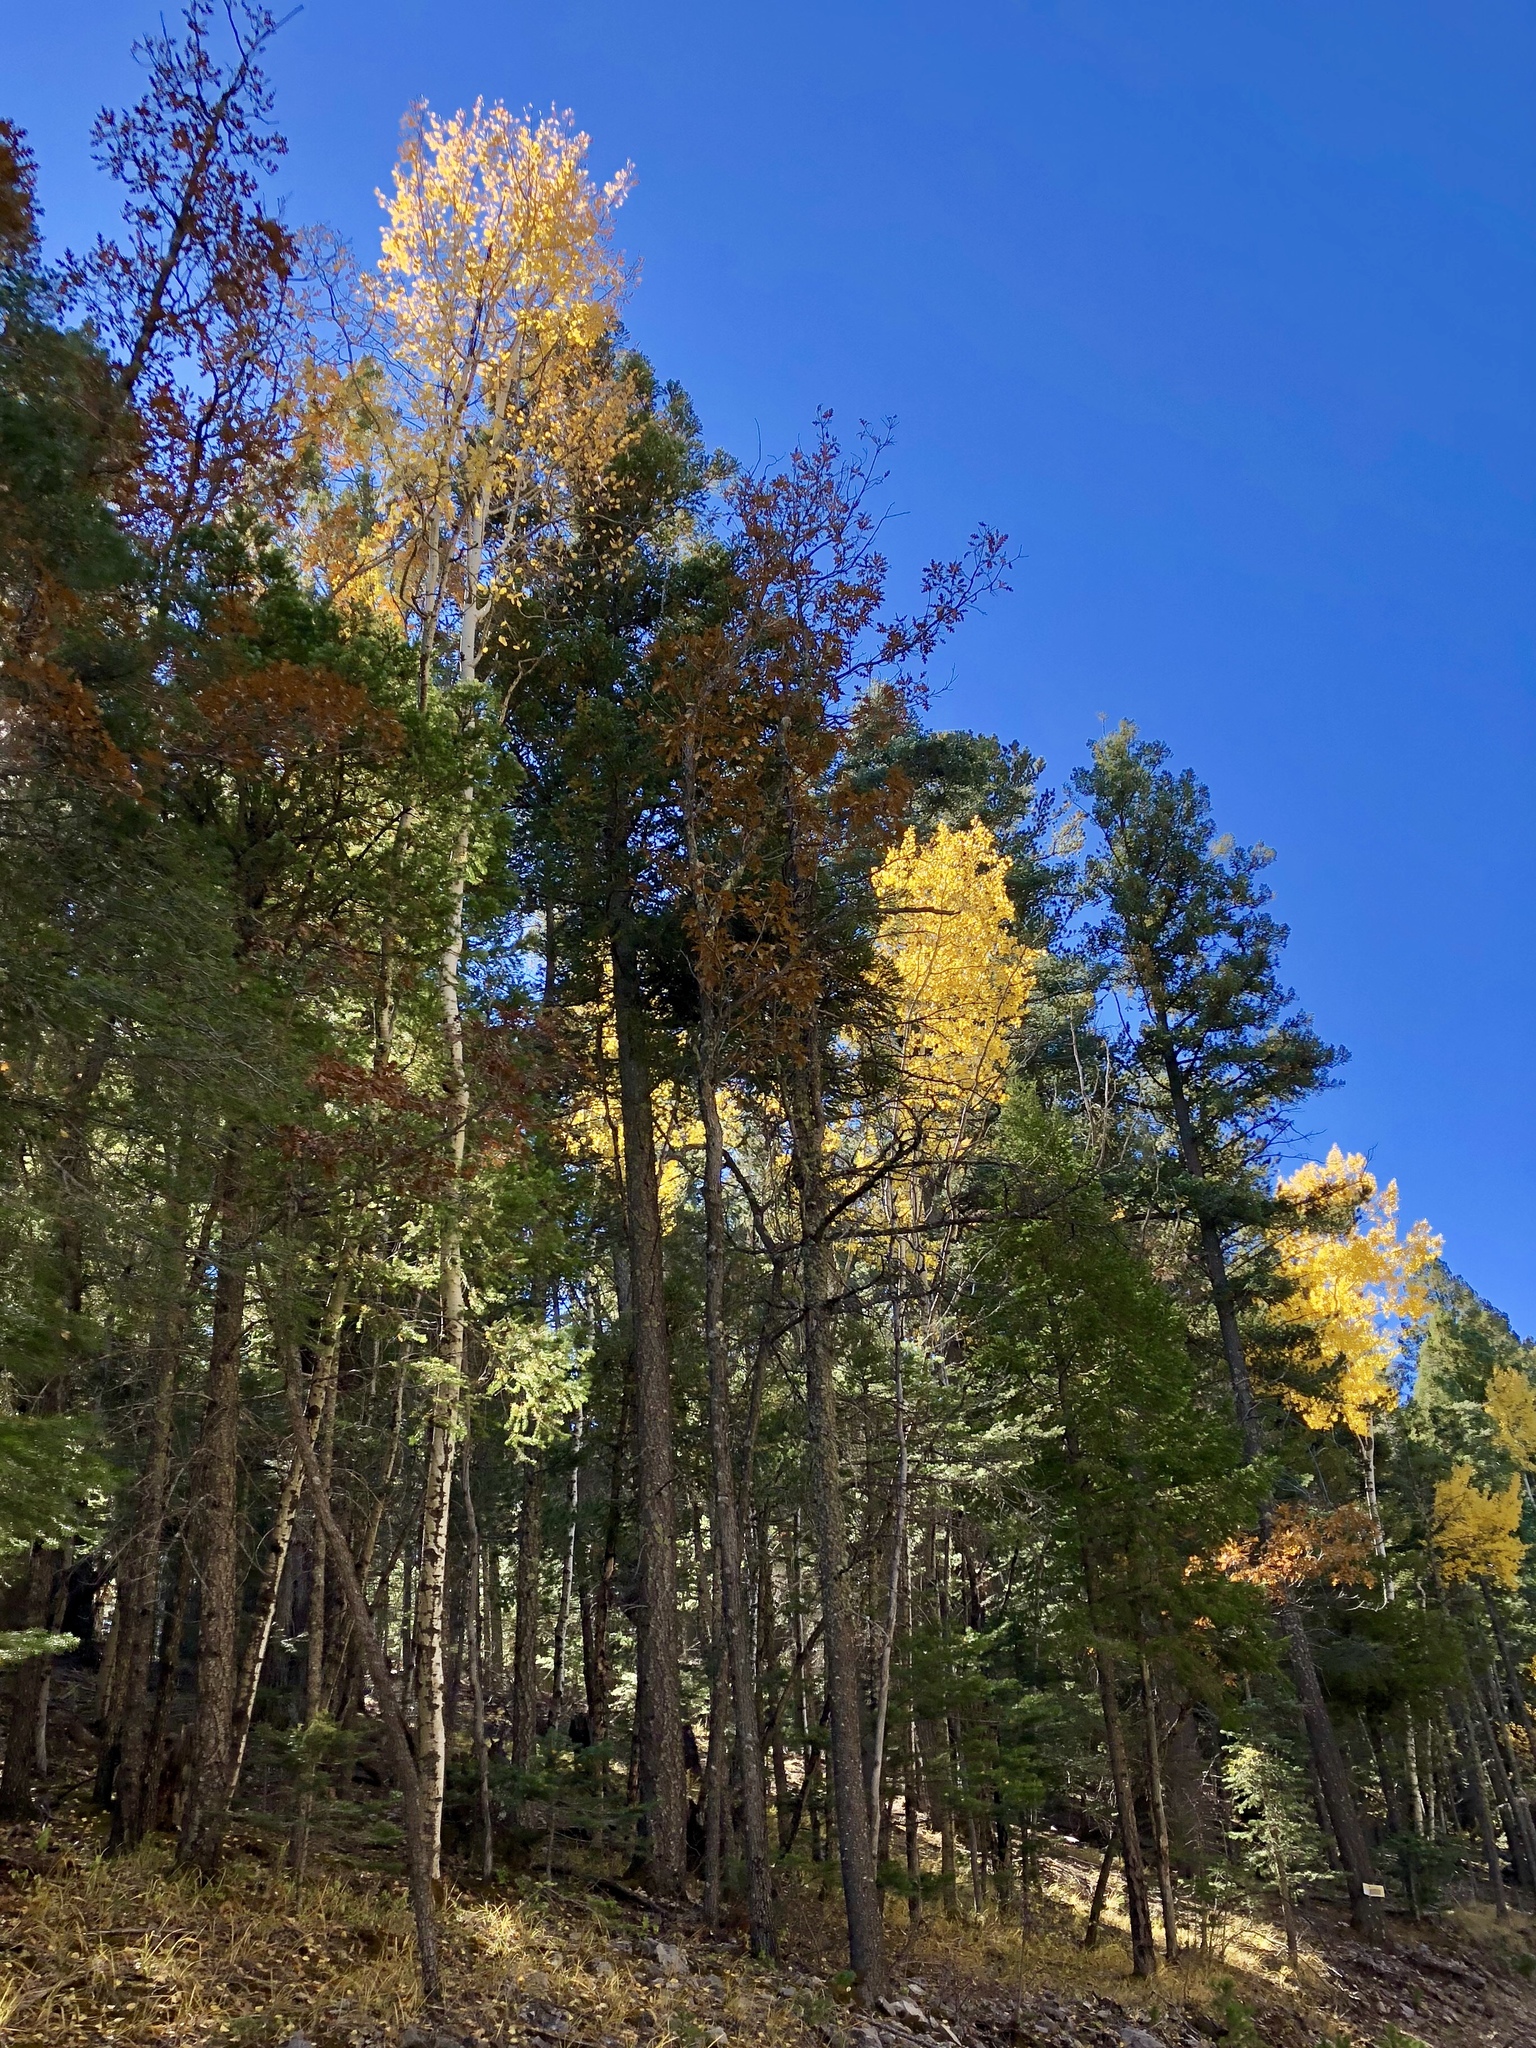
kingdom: Plantae
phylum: Tracheophyta
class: Magnoliopsida
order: Malpighiales
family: Salicaceae
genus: Populus
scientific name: Populus tremuloides
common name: Quaking aspen
